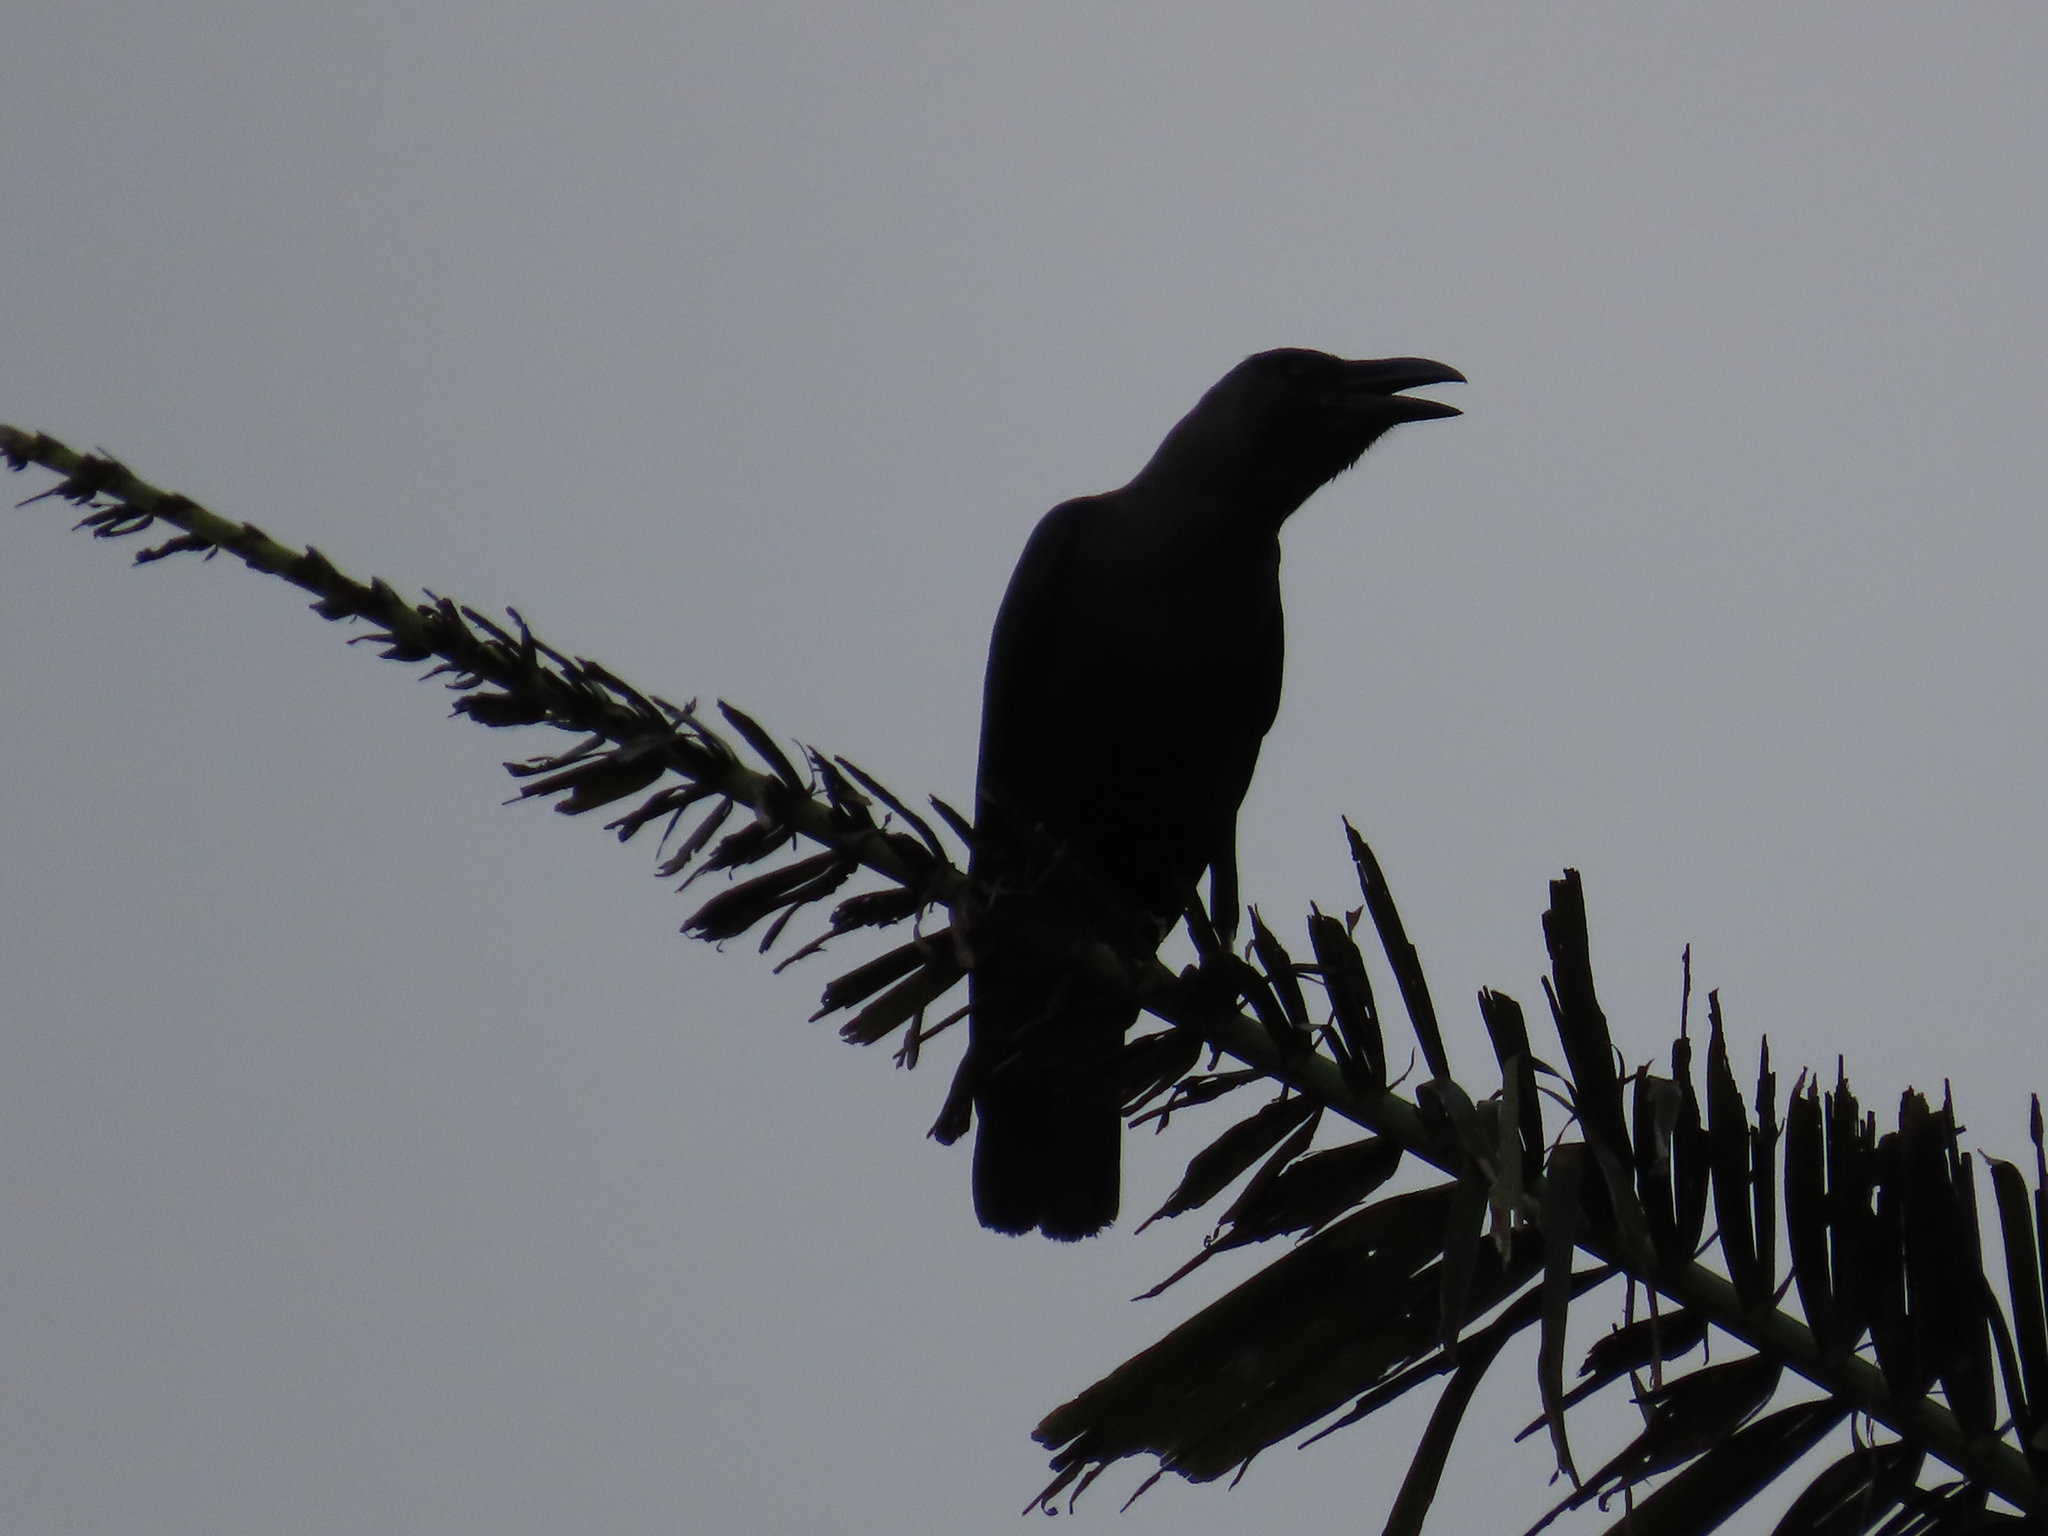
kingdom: Animalia
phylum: Chordata
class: Aves
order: Passeriformes
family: Corvidae
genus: Corvus
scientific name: Corvus splendens
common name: House crow
